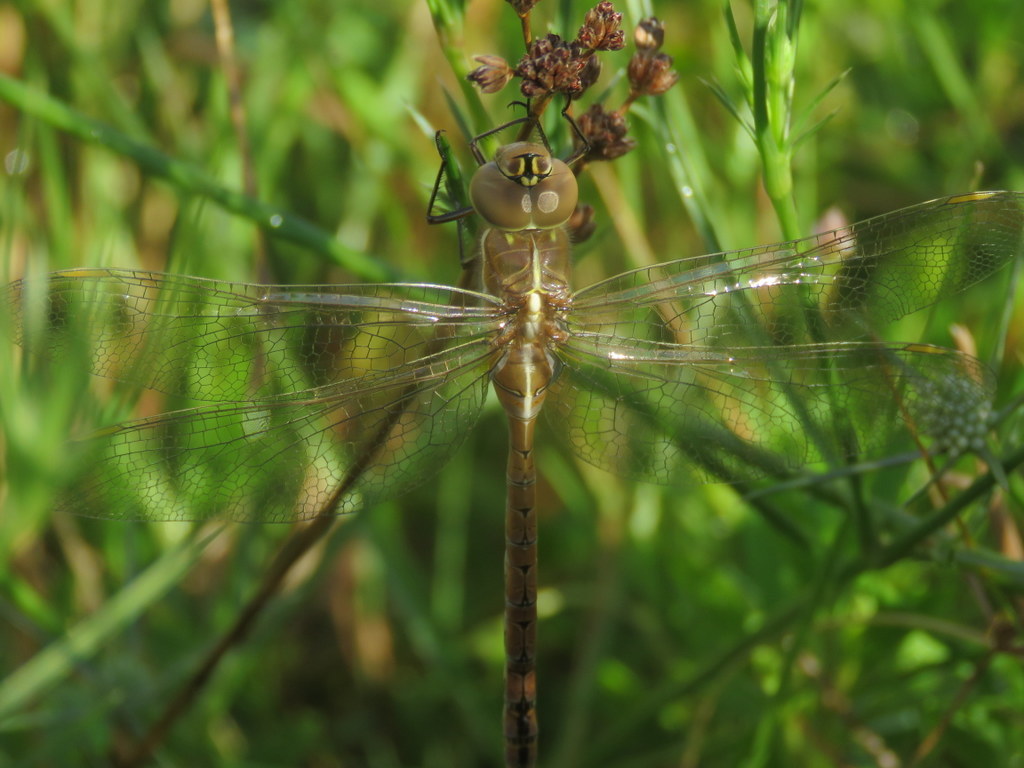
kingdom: Animalia
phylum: Arthropoda
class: Insecta
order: Odonata
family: Aeshnidae
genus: Rhionaeschna
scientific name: Rhionaeschna bonariensis
